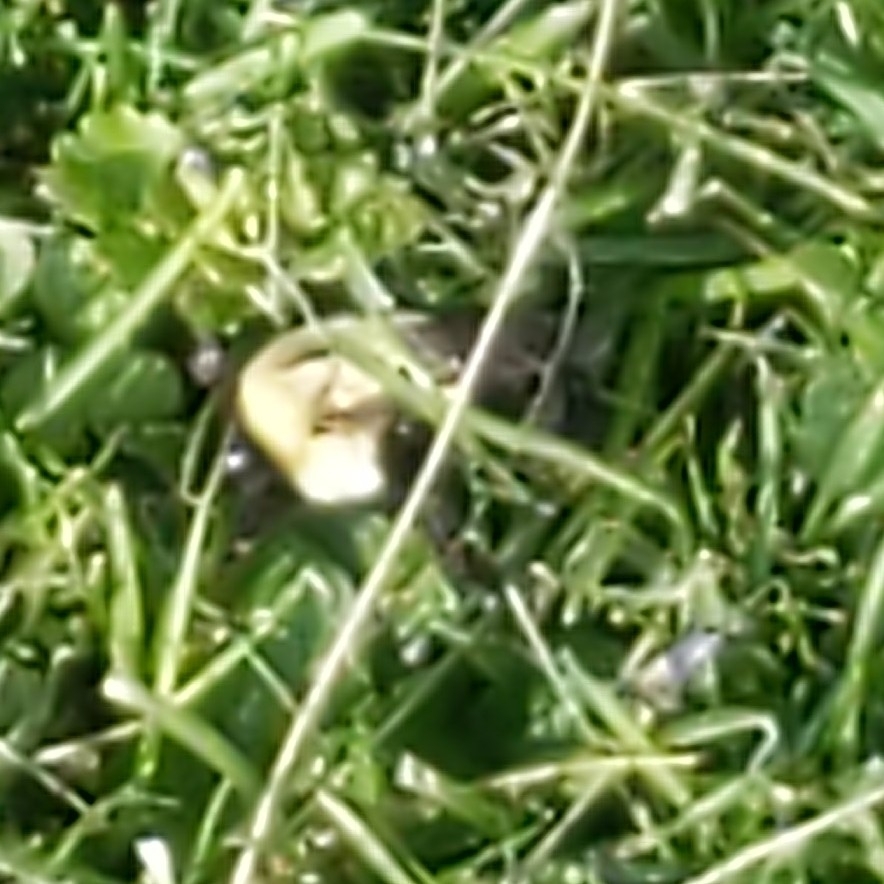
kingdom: Animalia
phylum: Arthropoda
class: Insecta
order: Hymenoptera
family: Apidae
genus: Bombus
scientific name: Bombus impatiens
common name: Common eastern bumble bee
